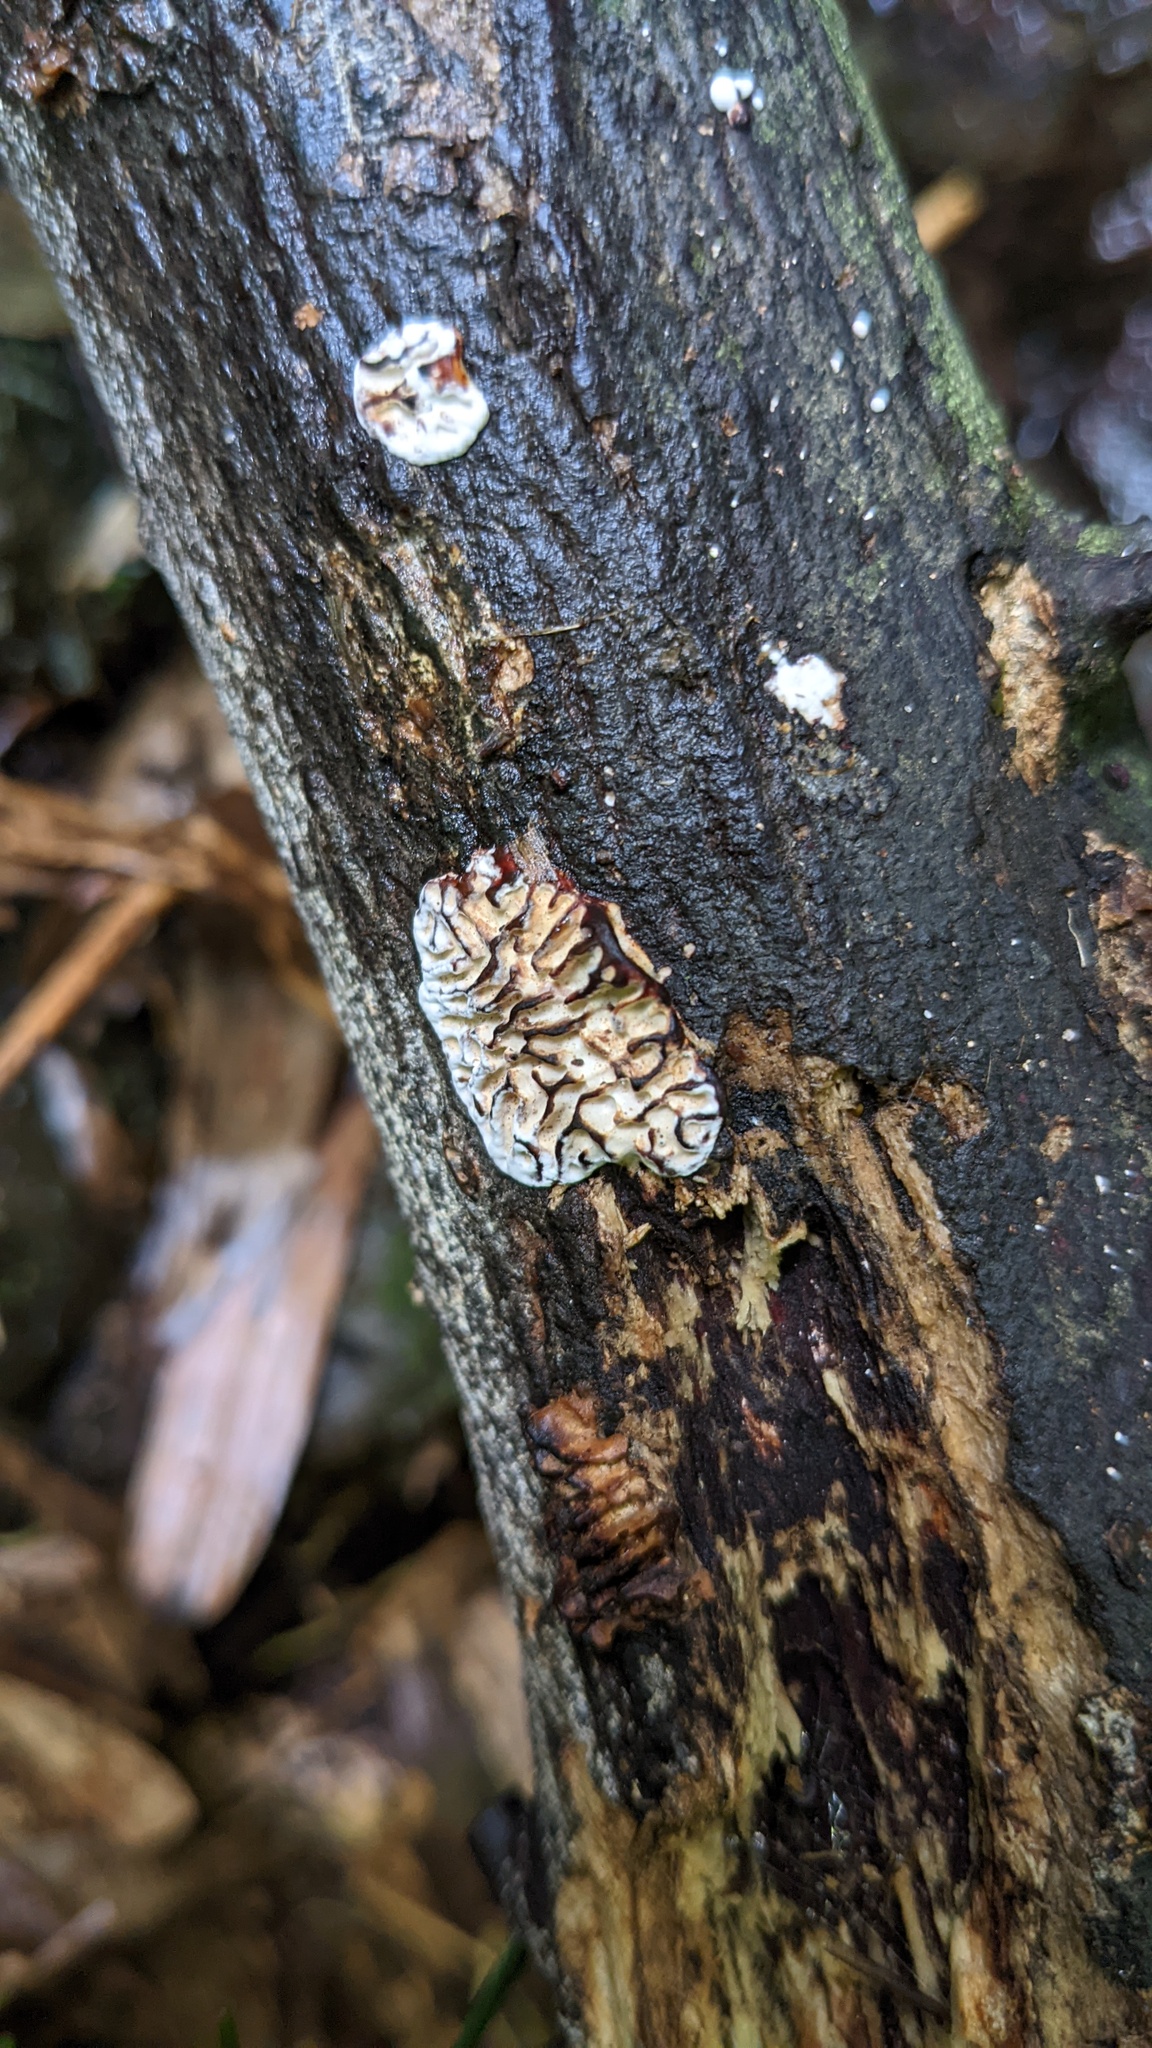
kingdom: Fungi
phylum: Basidiomycota
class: Agaricomycetes
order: Polyporales
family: Polyporaceae
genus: Lenzites
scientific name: Lenzites styracinus
